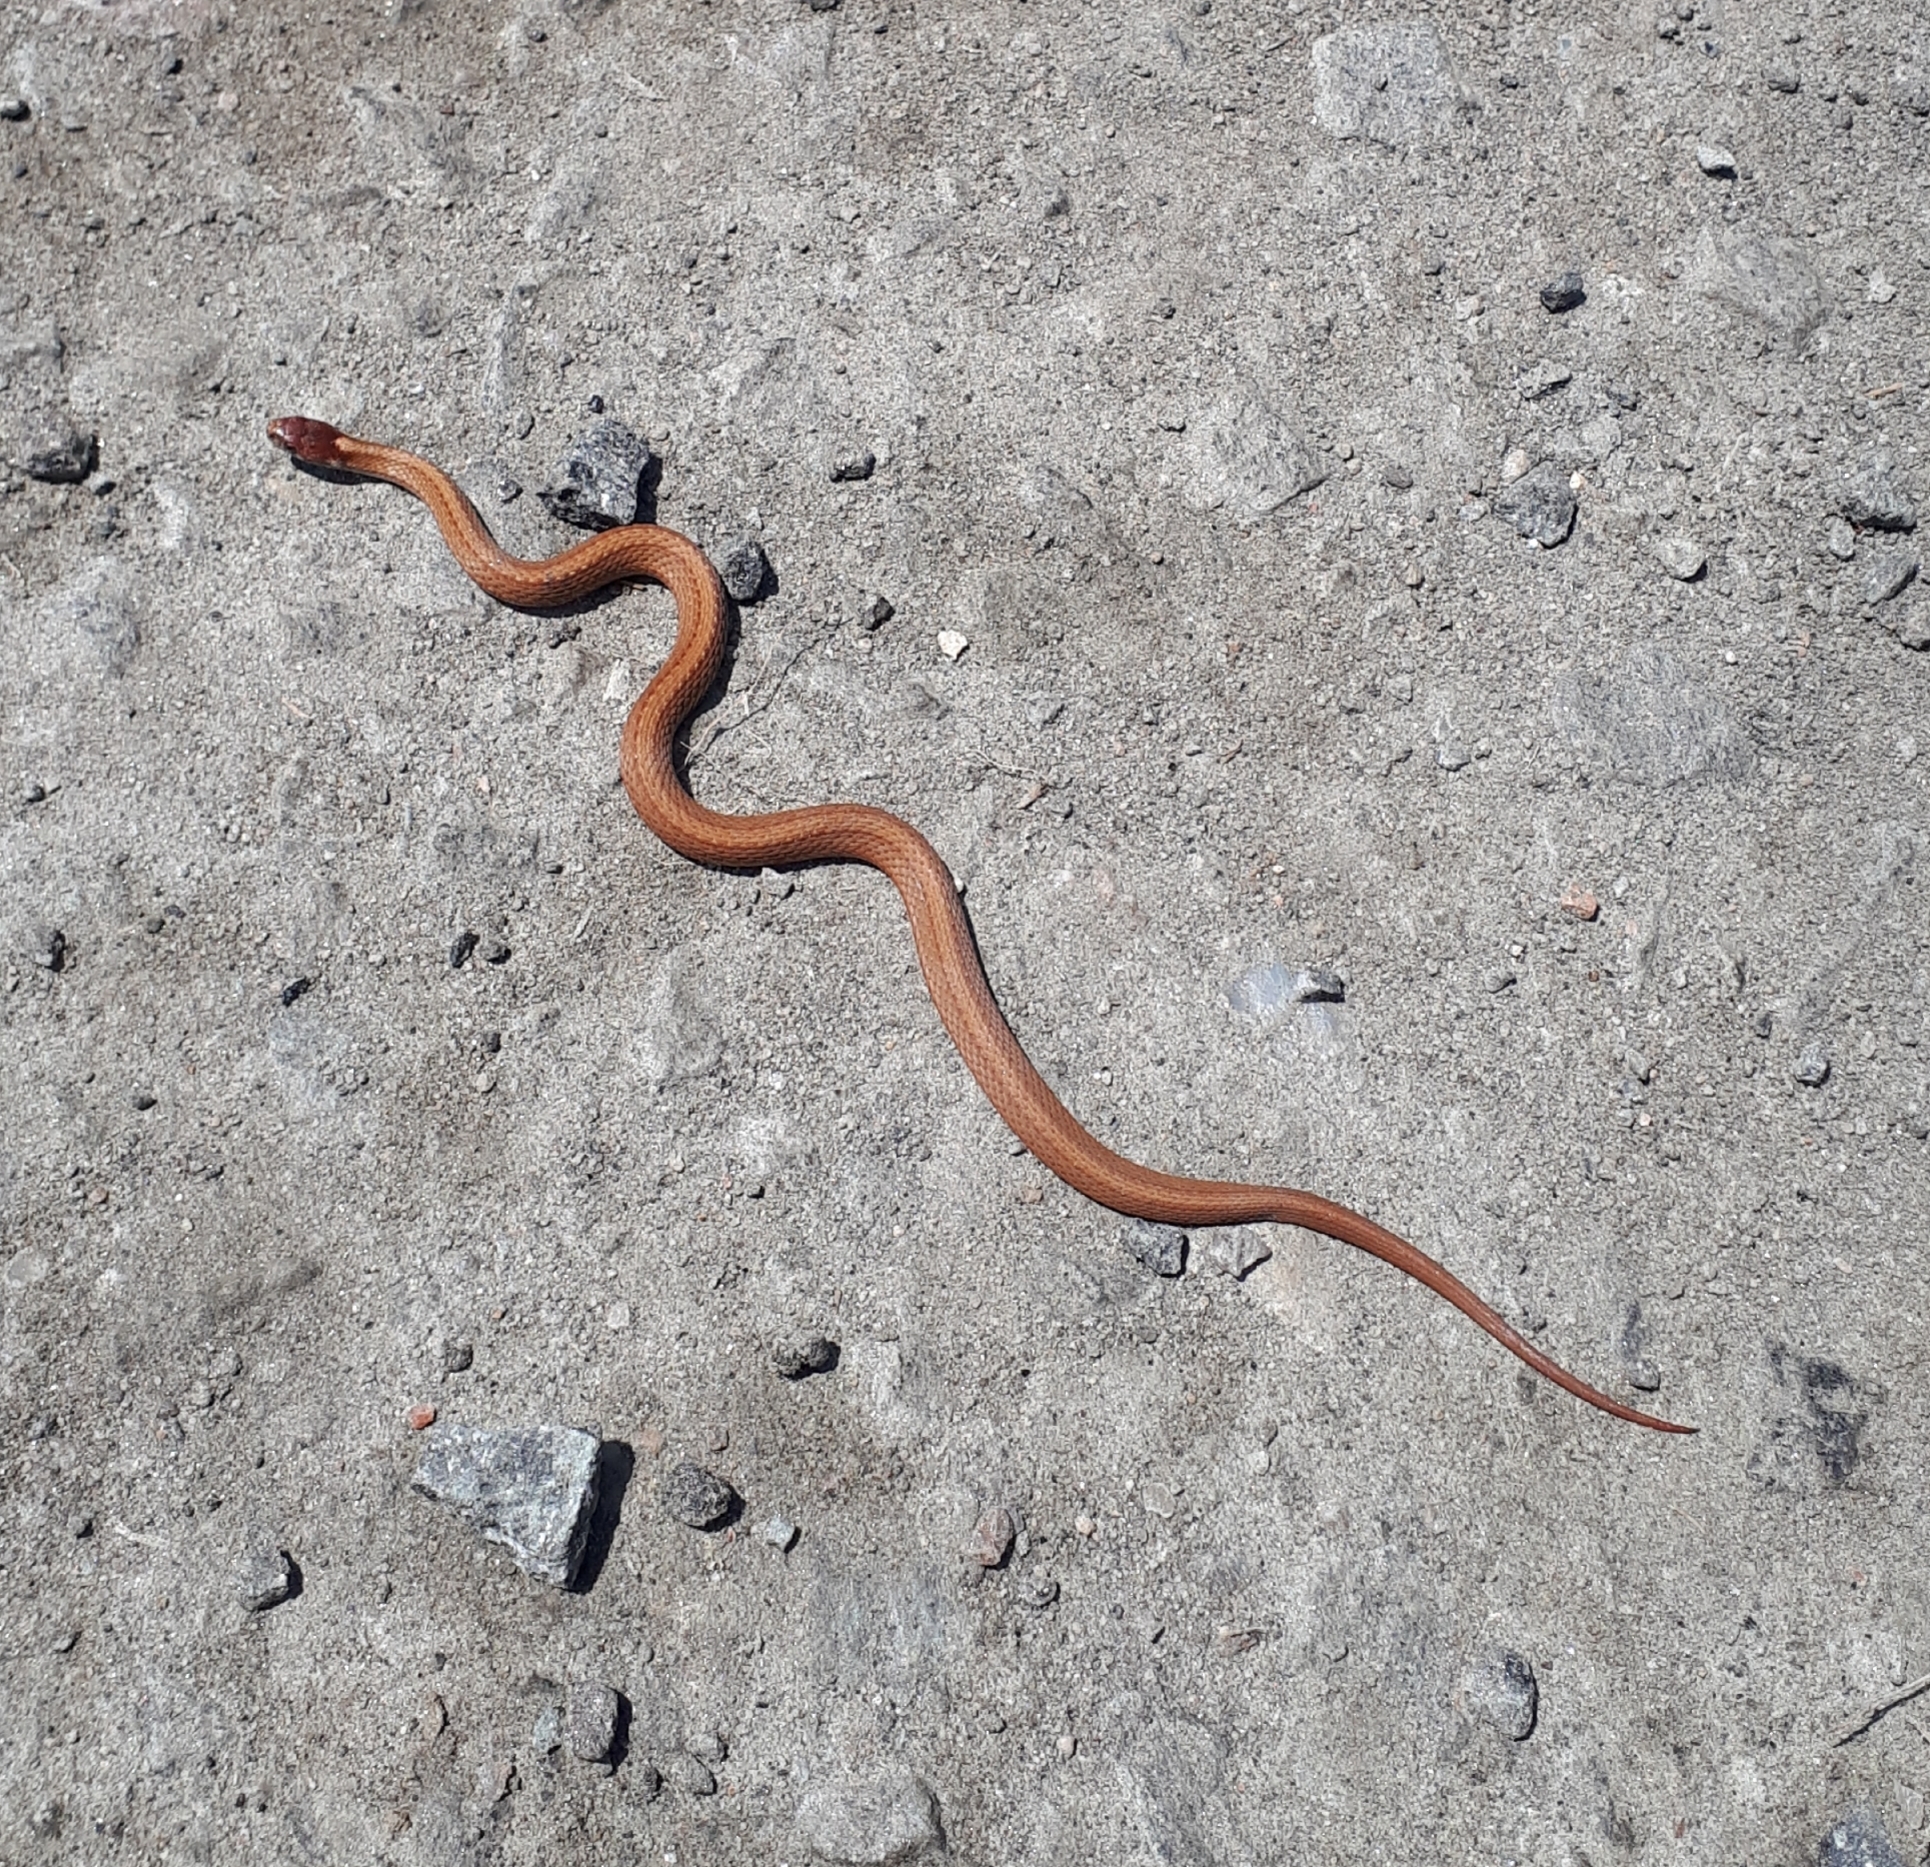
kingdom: Animalia
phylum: Chordata
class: Squamata
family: Colubridae
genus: Storeria
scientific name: Storeria occipitomaculata
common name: Redbelly snake
